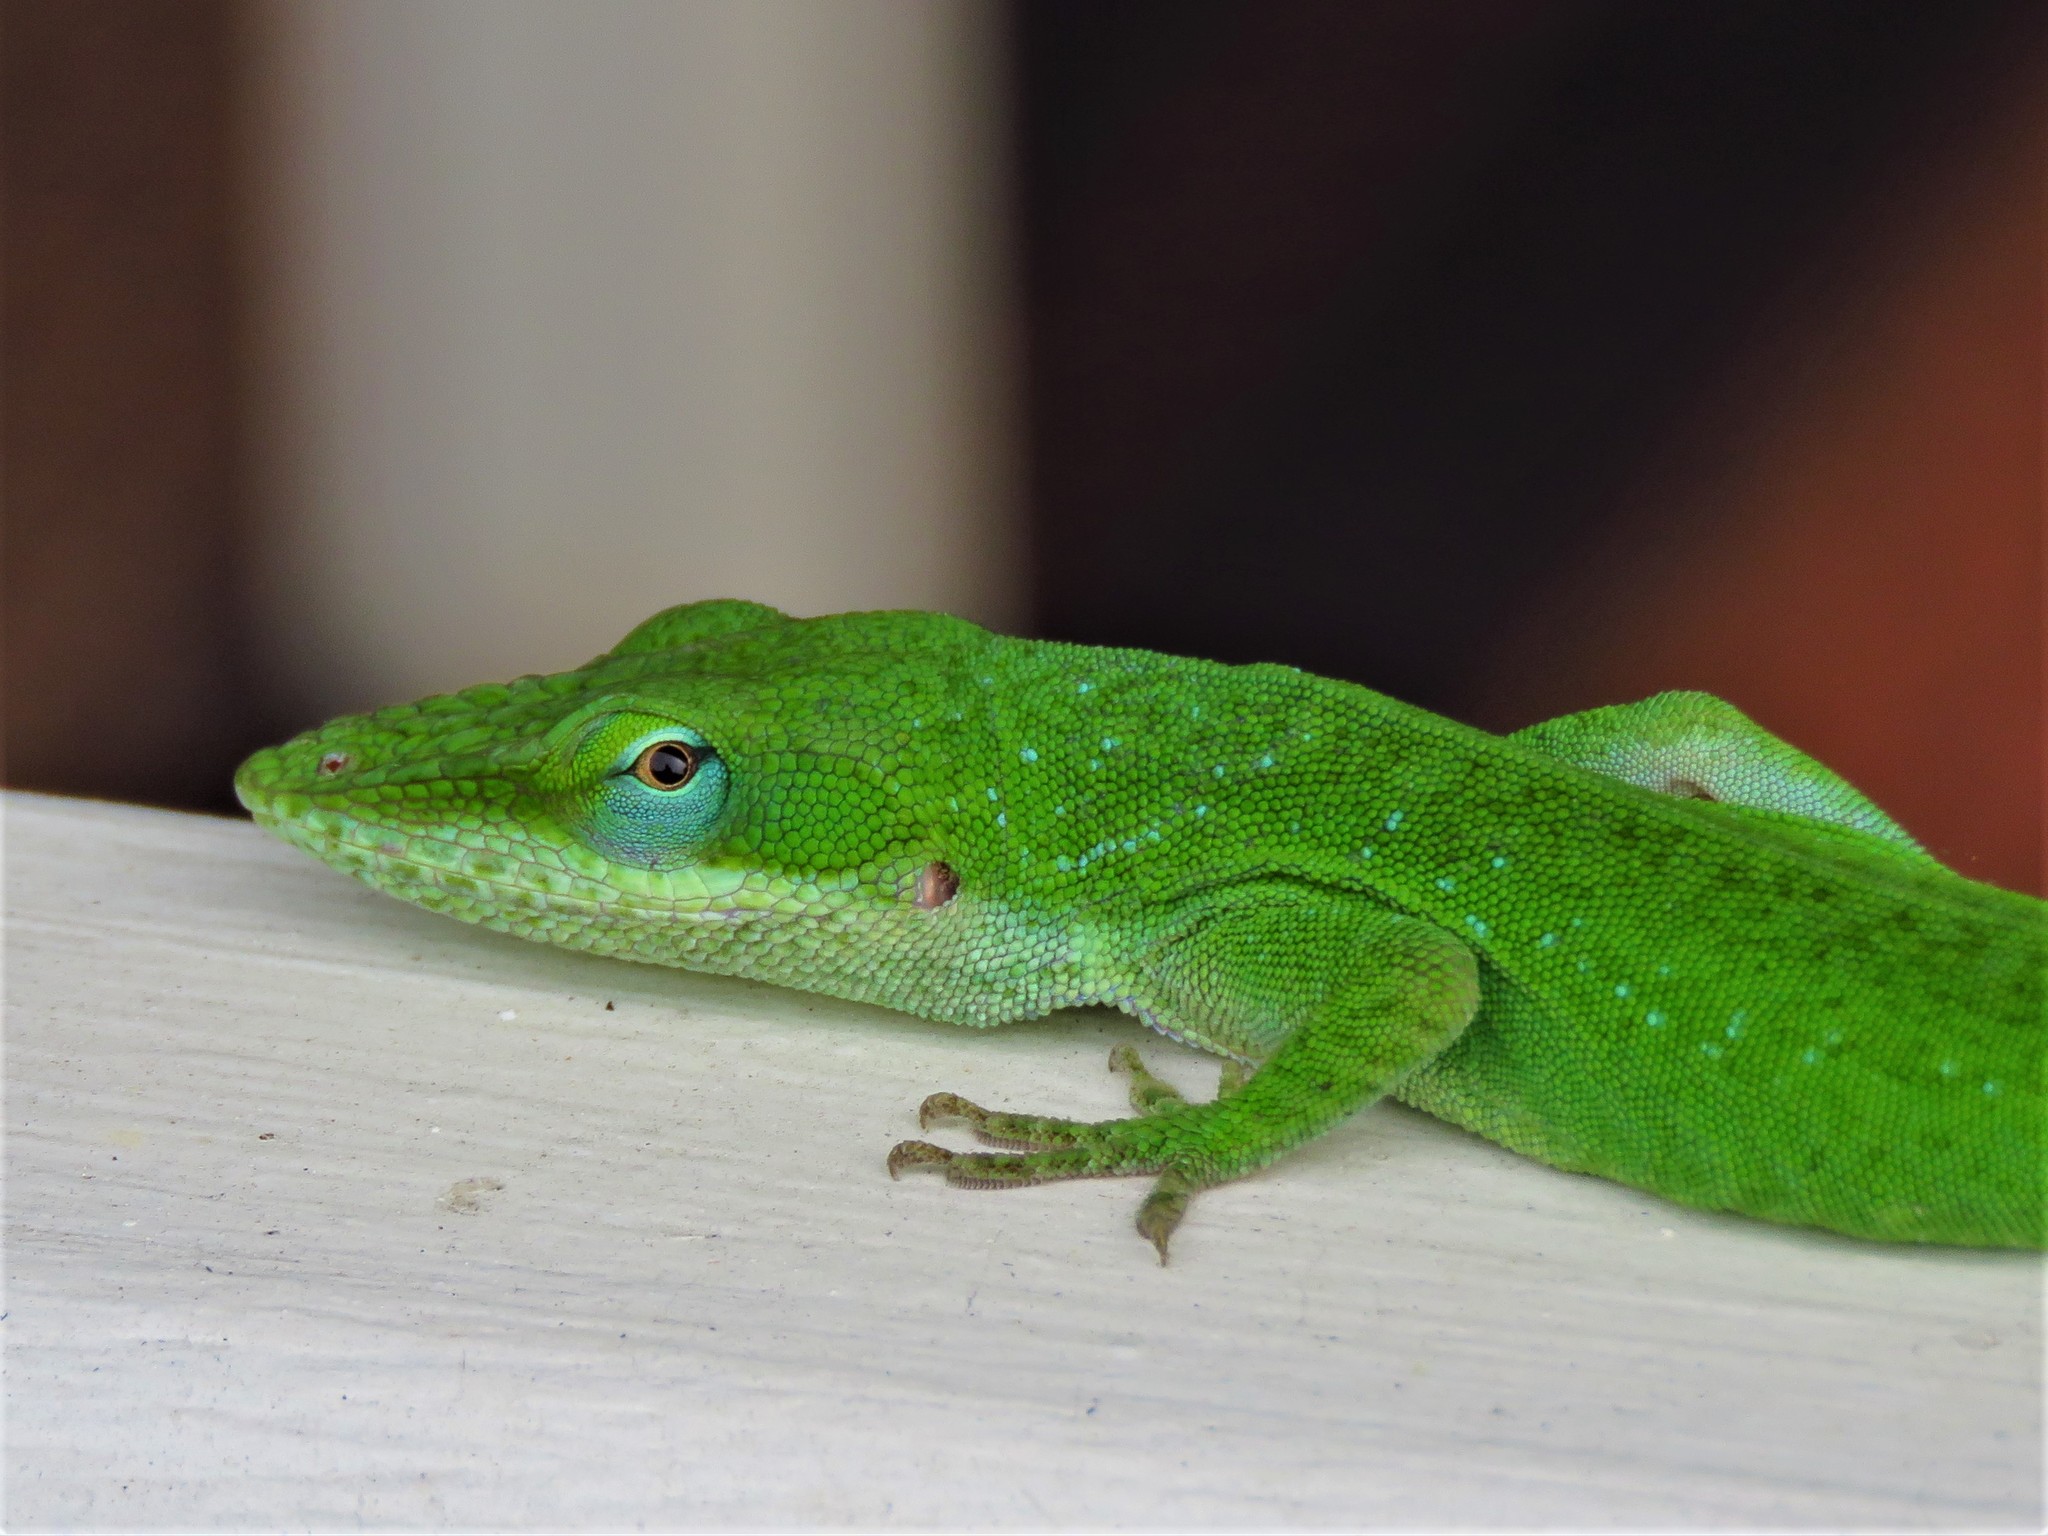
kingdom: Animalia
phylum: Chordata
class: Squamata
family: Dactyloidae
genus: Anolis
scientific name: Anolis carolinensis
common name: Green anole
